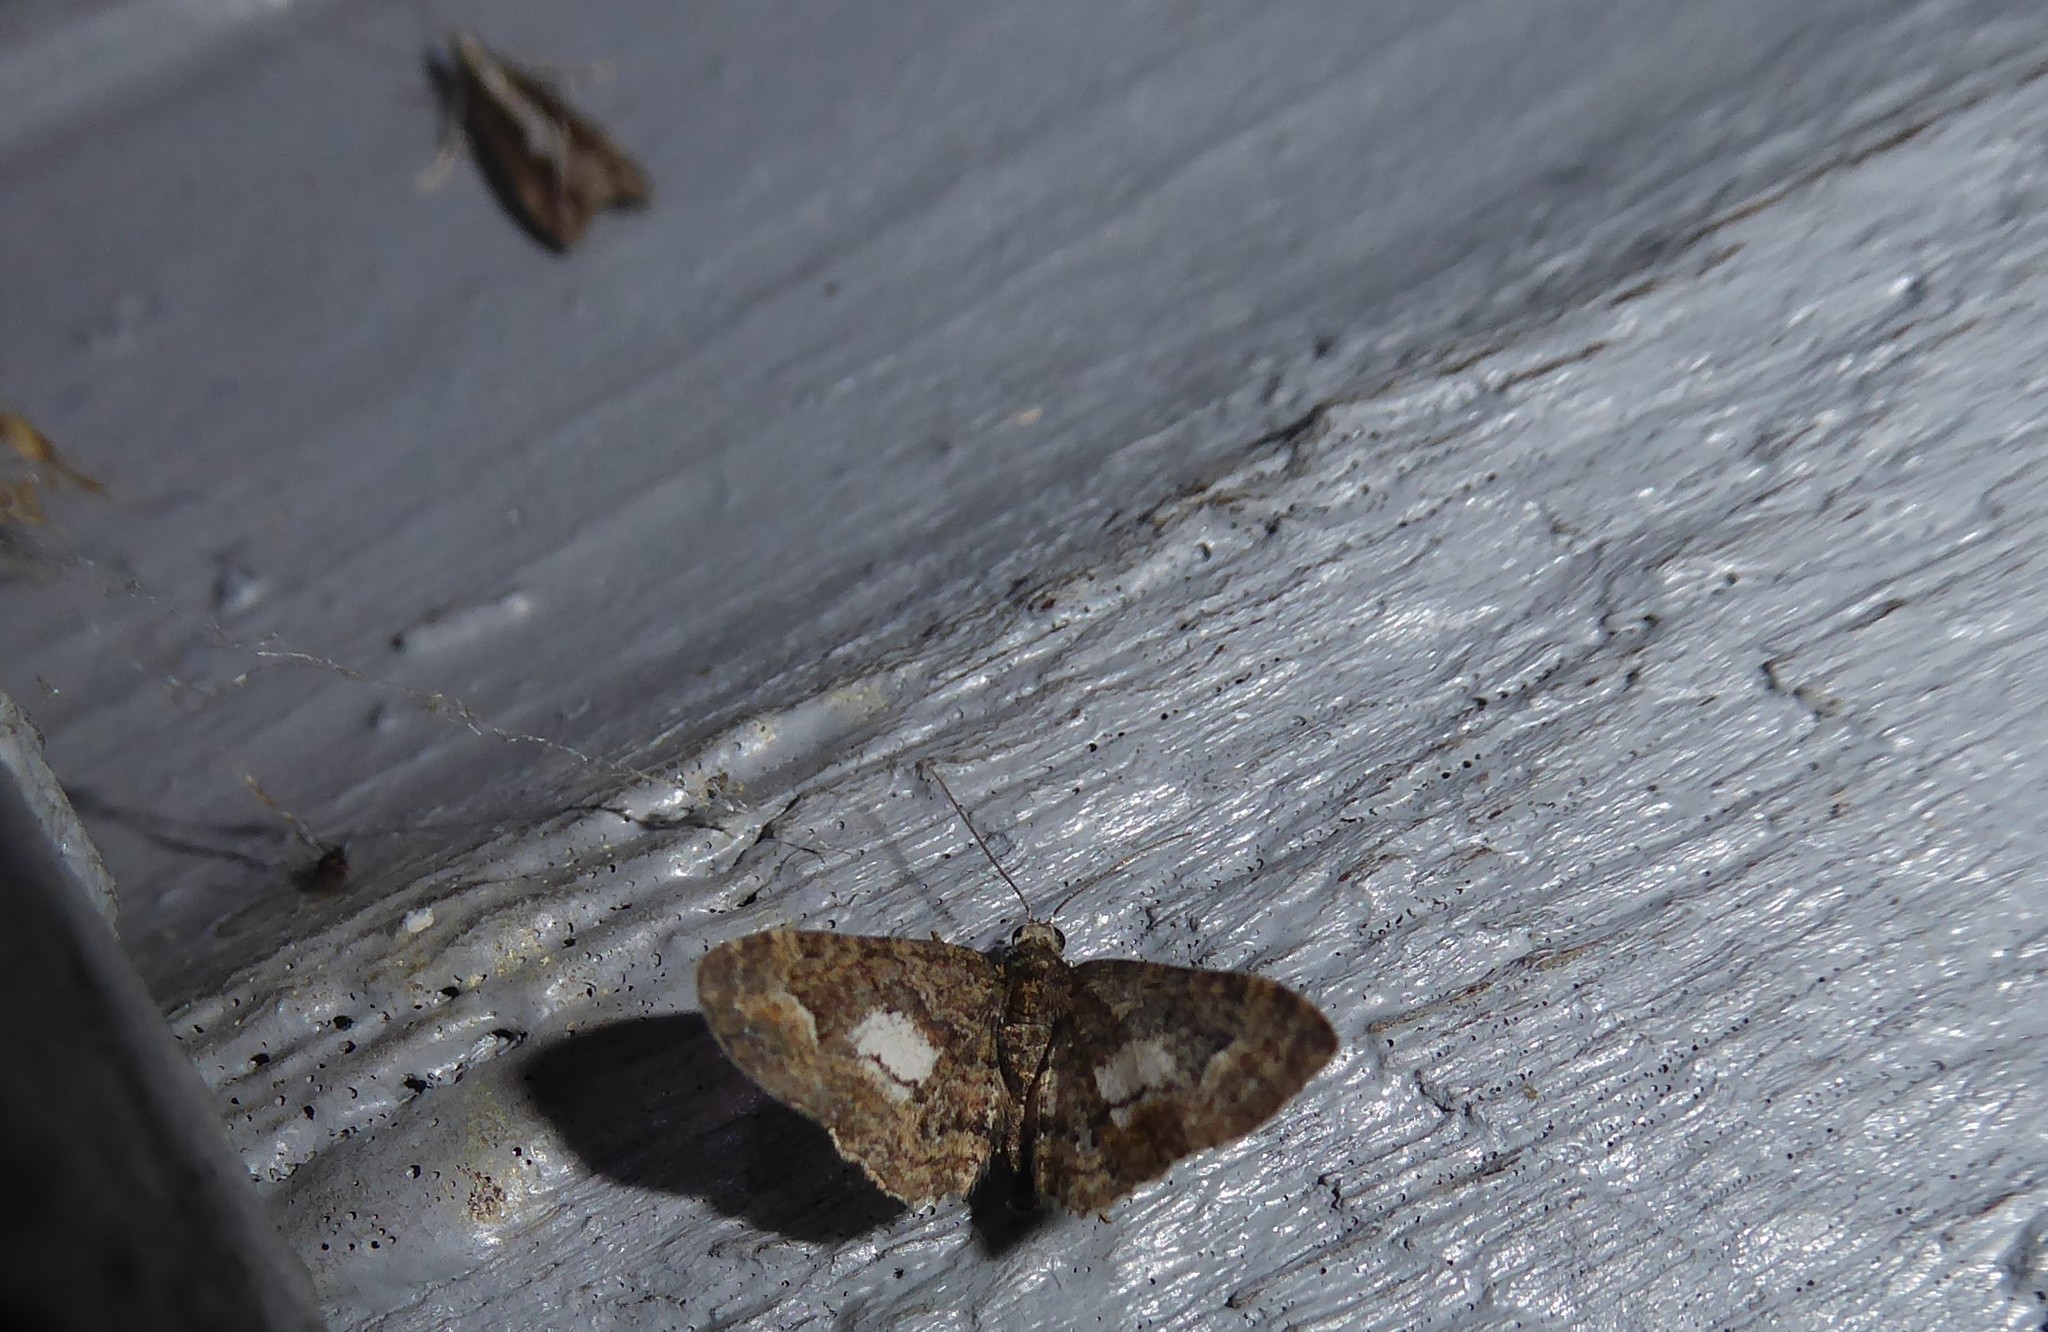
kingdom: Animalia
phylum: Arthropoda
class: Insecta
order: Lepidoptera
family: Geometridae
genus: Pasiphilodes
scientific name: Pasiphilodes testulata
